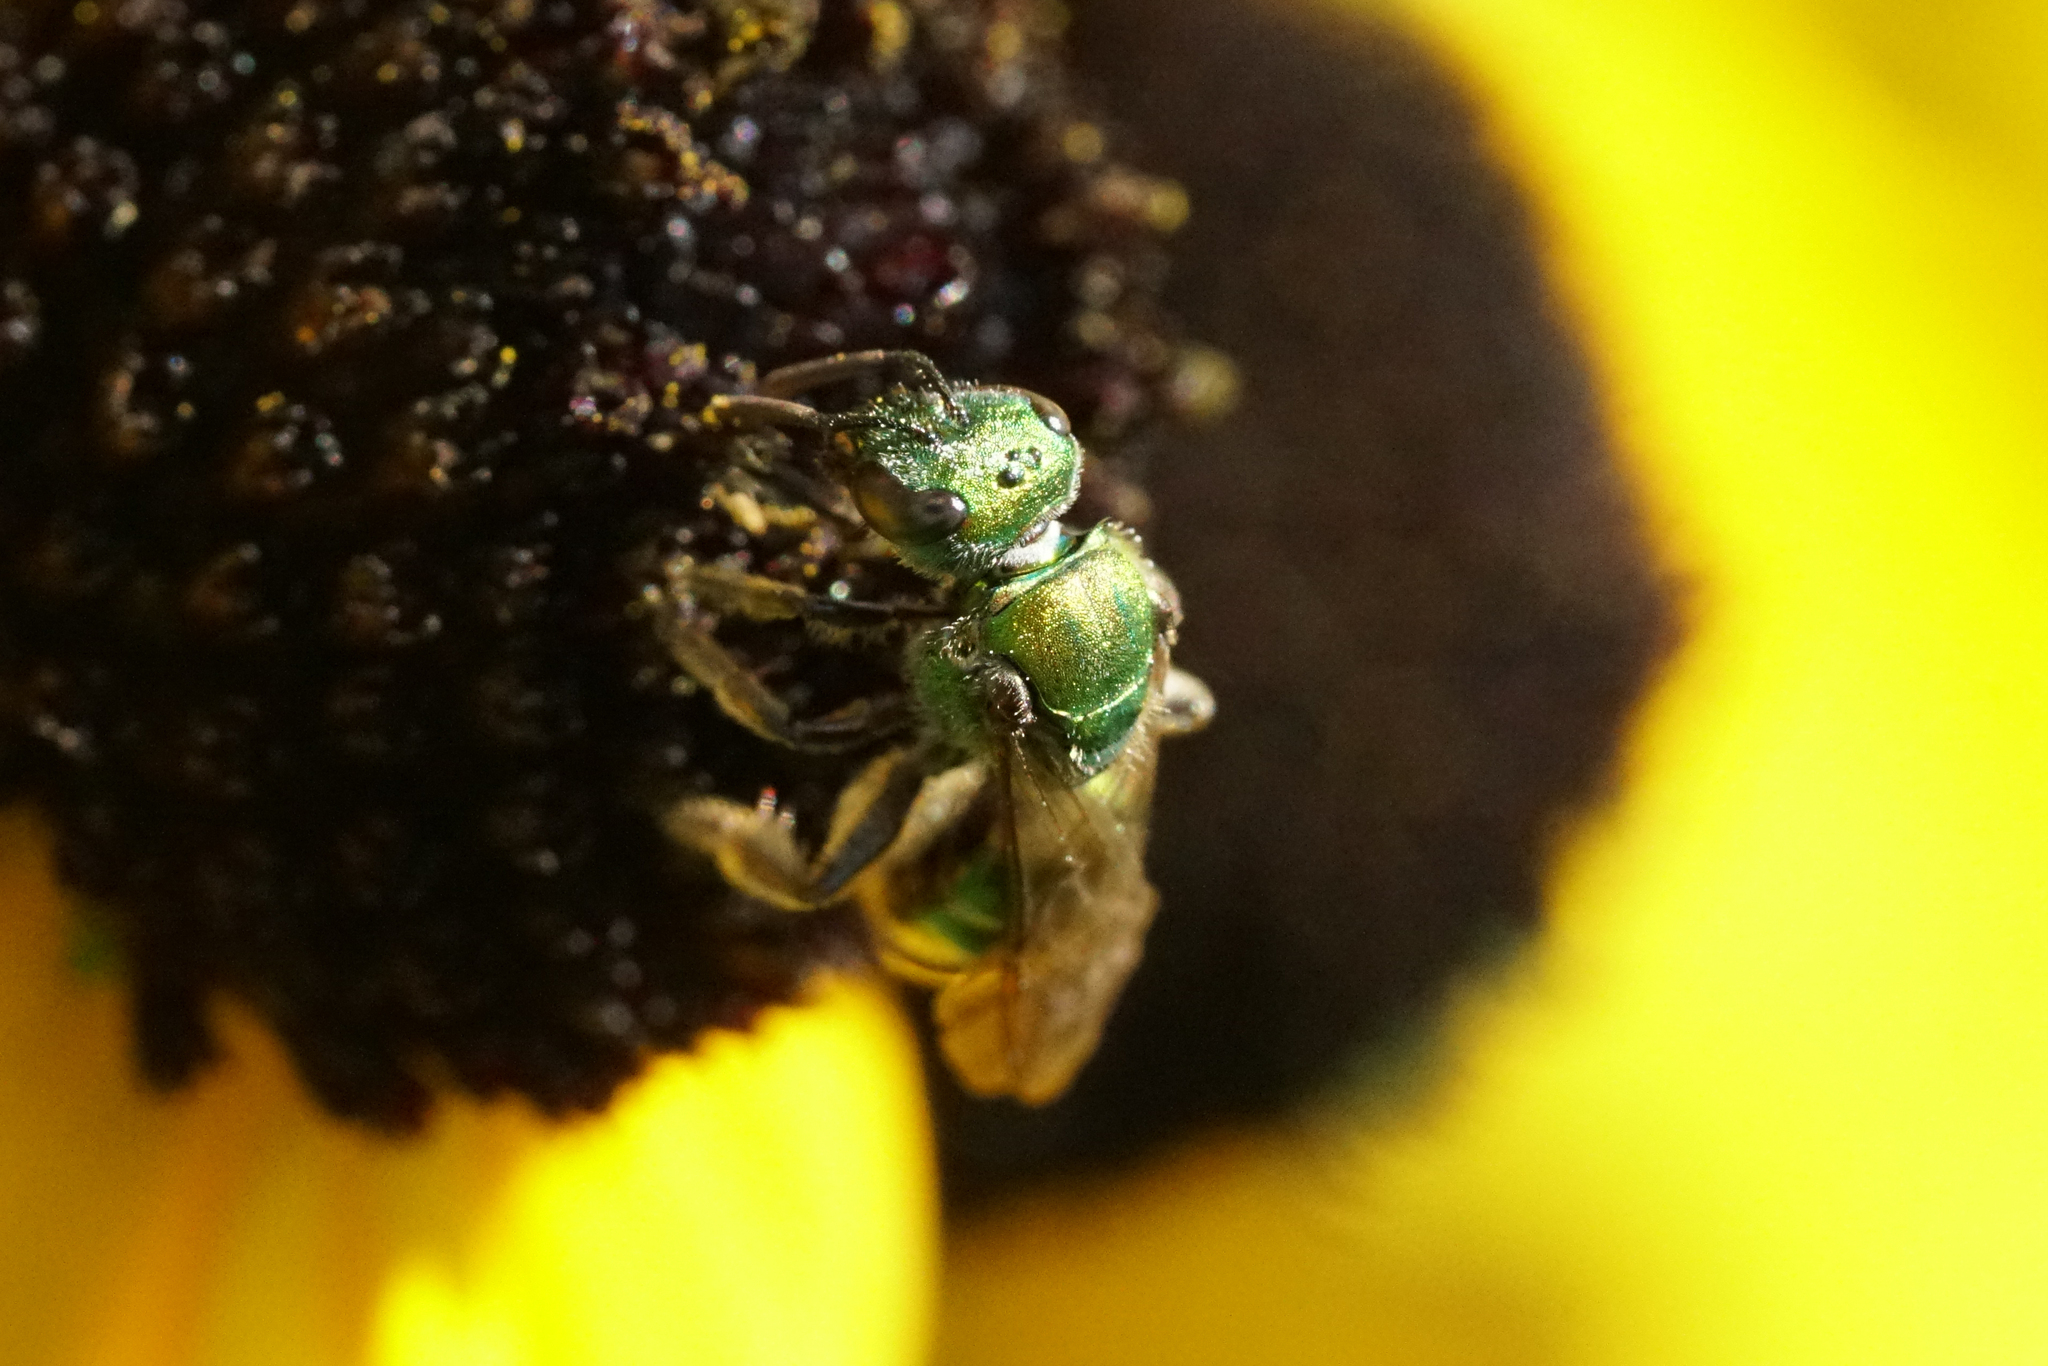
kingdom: Animalia
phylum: Arthropoda
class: Insecta
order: Hymenoptera
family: Halictidae
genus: Augochlora
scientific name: Augochlora pura
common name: Pure green sweat bee
